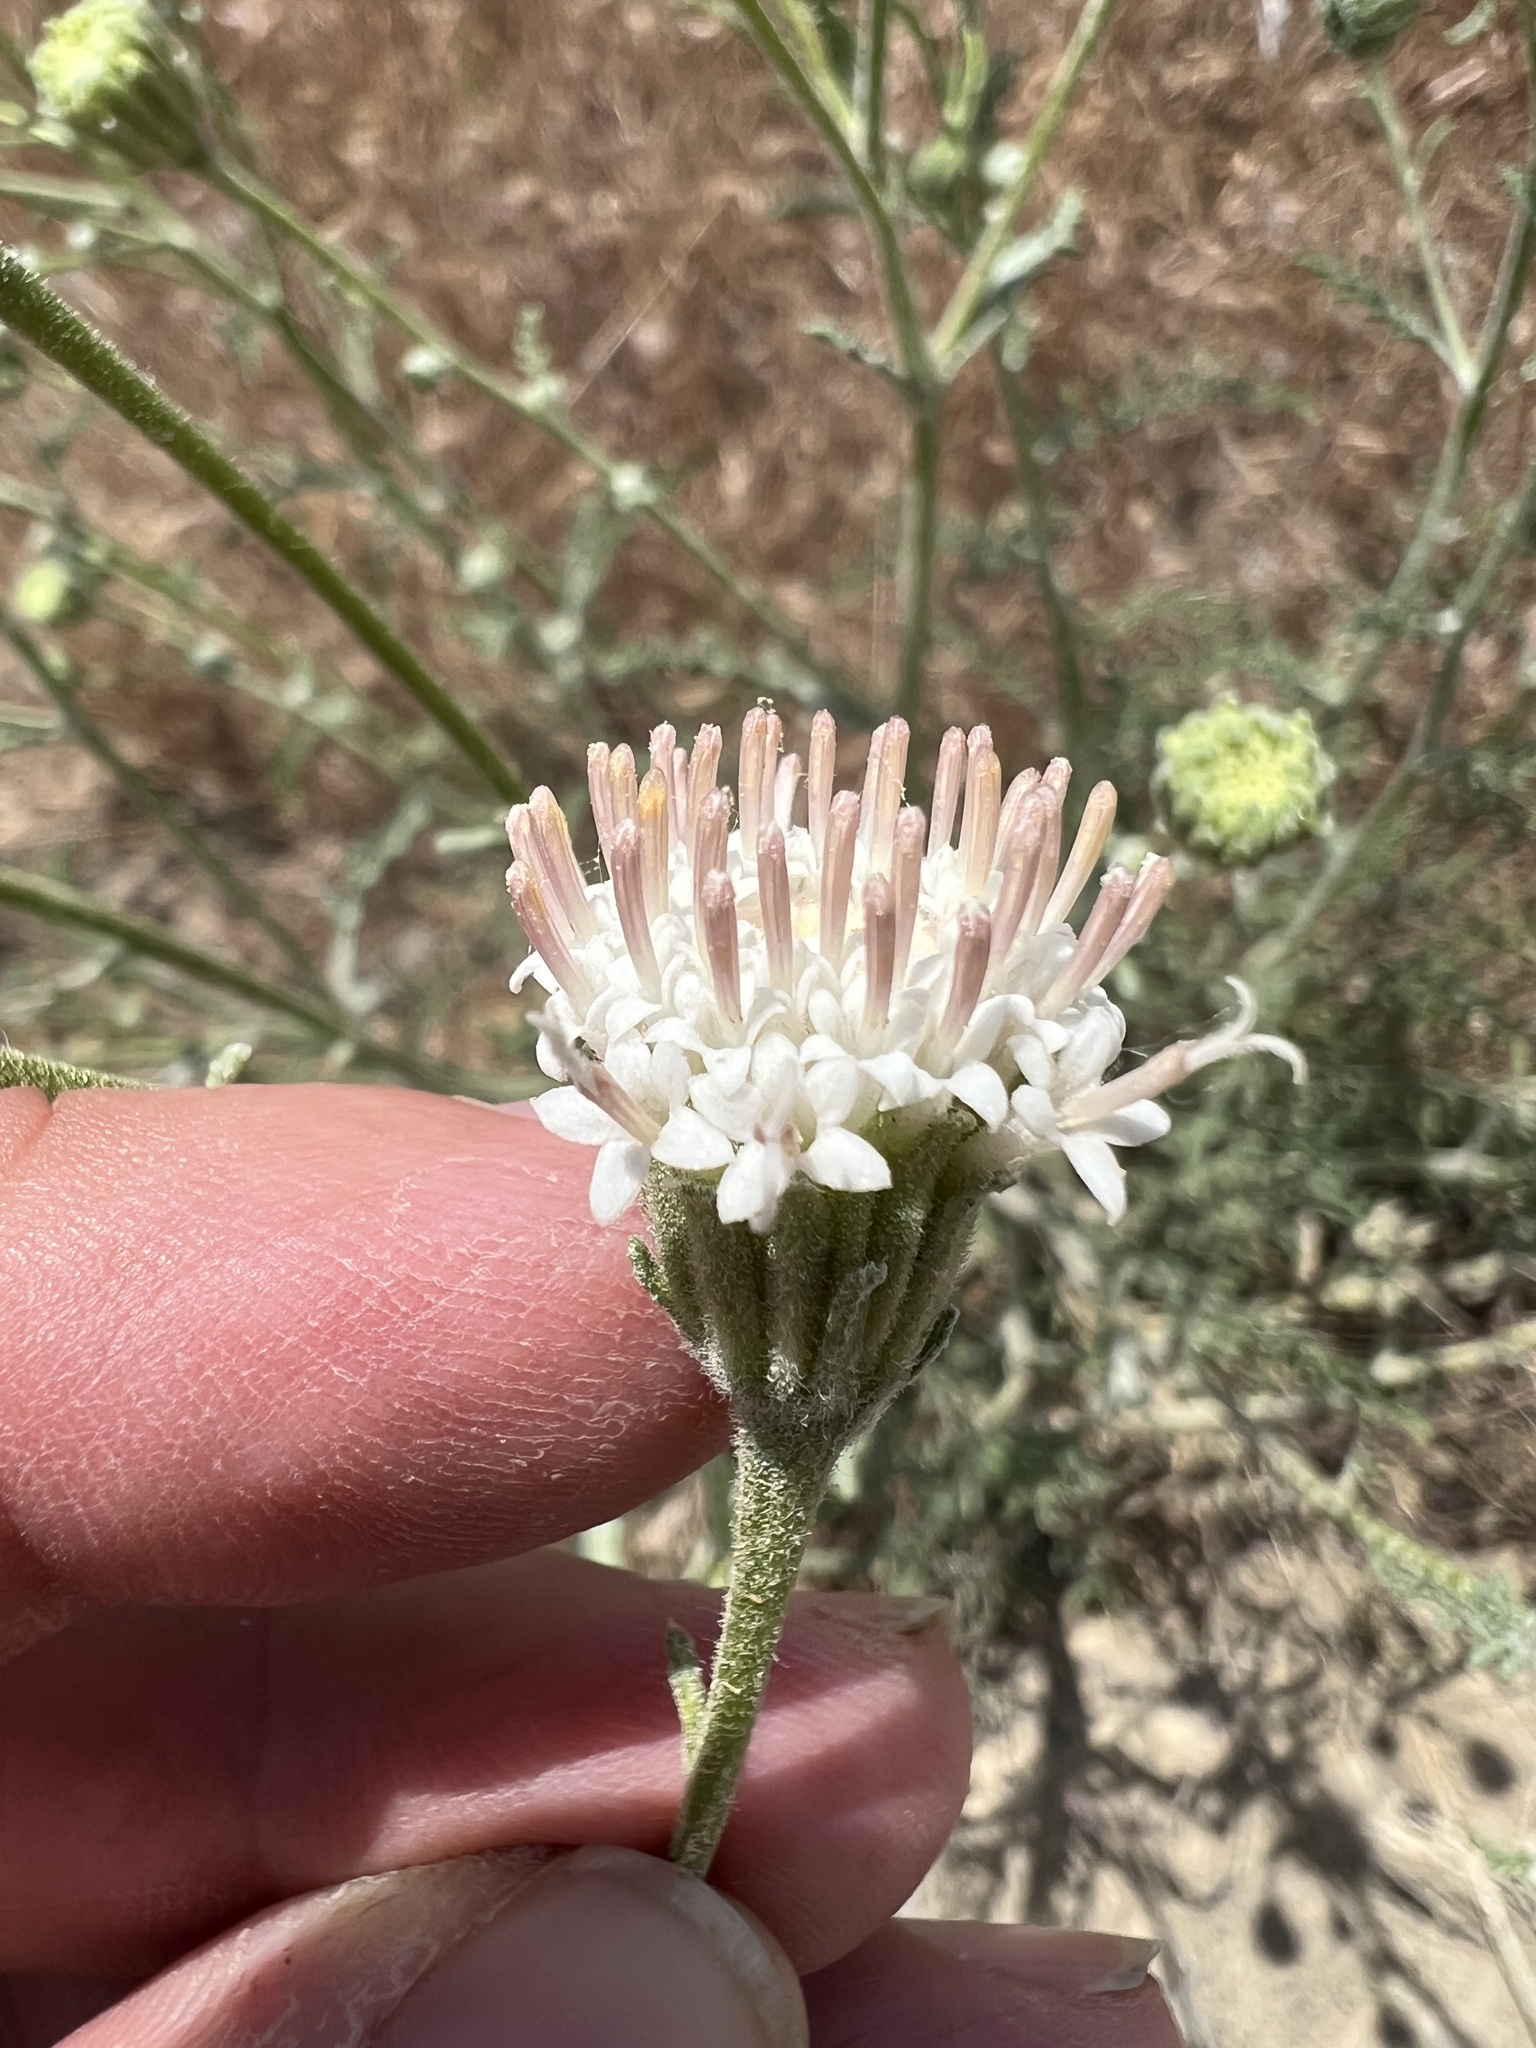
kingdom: Plantae
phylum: Tracheophyta
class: Magnoliopsida
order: Asterales
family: Asteraceae
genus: Chaenactis
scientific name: Chaenactis douglasii
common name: Hoary pincushion
